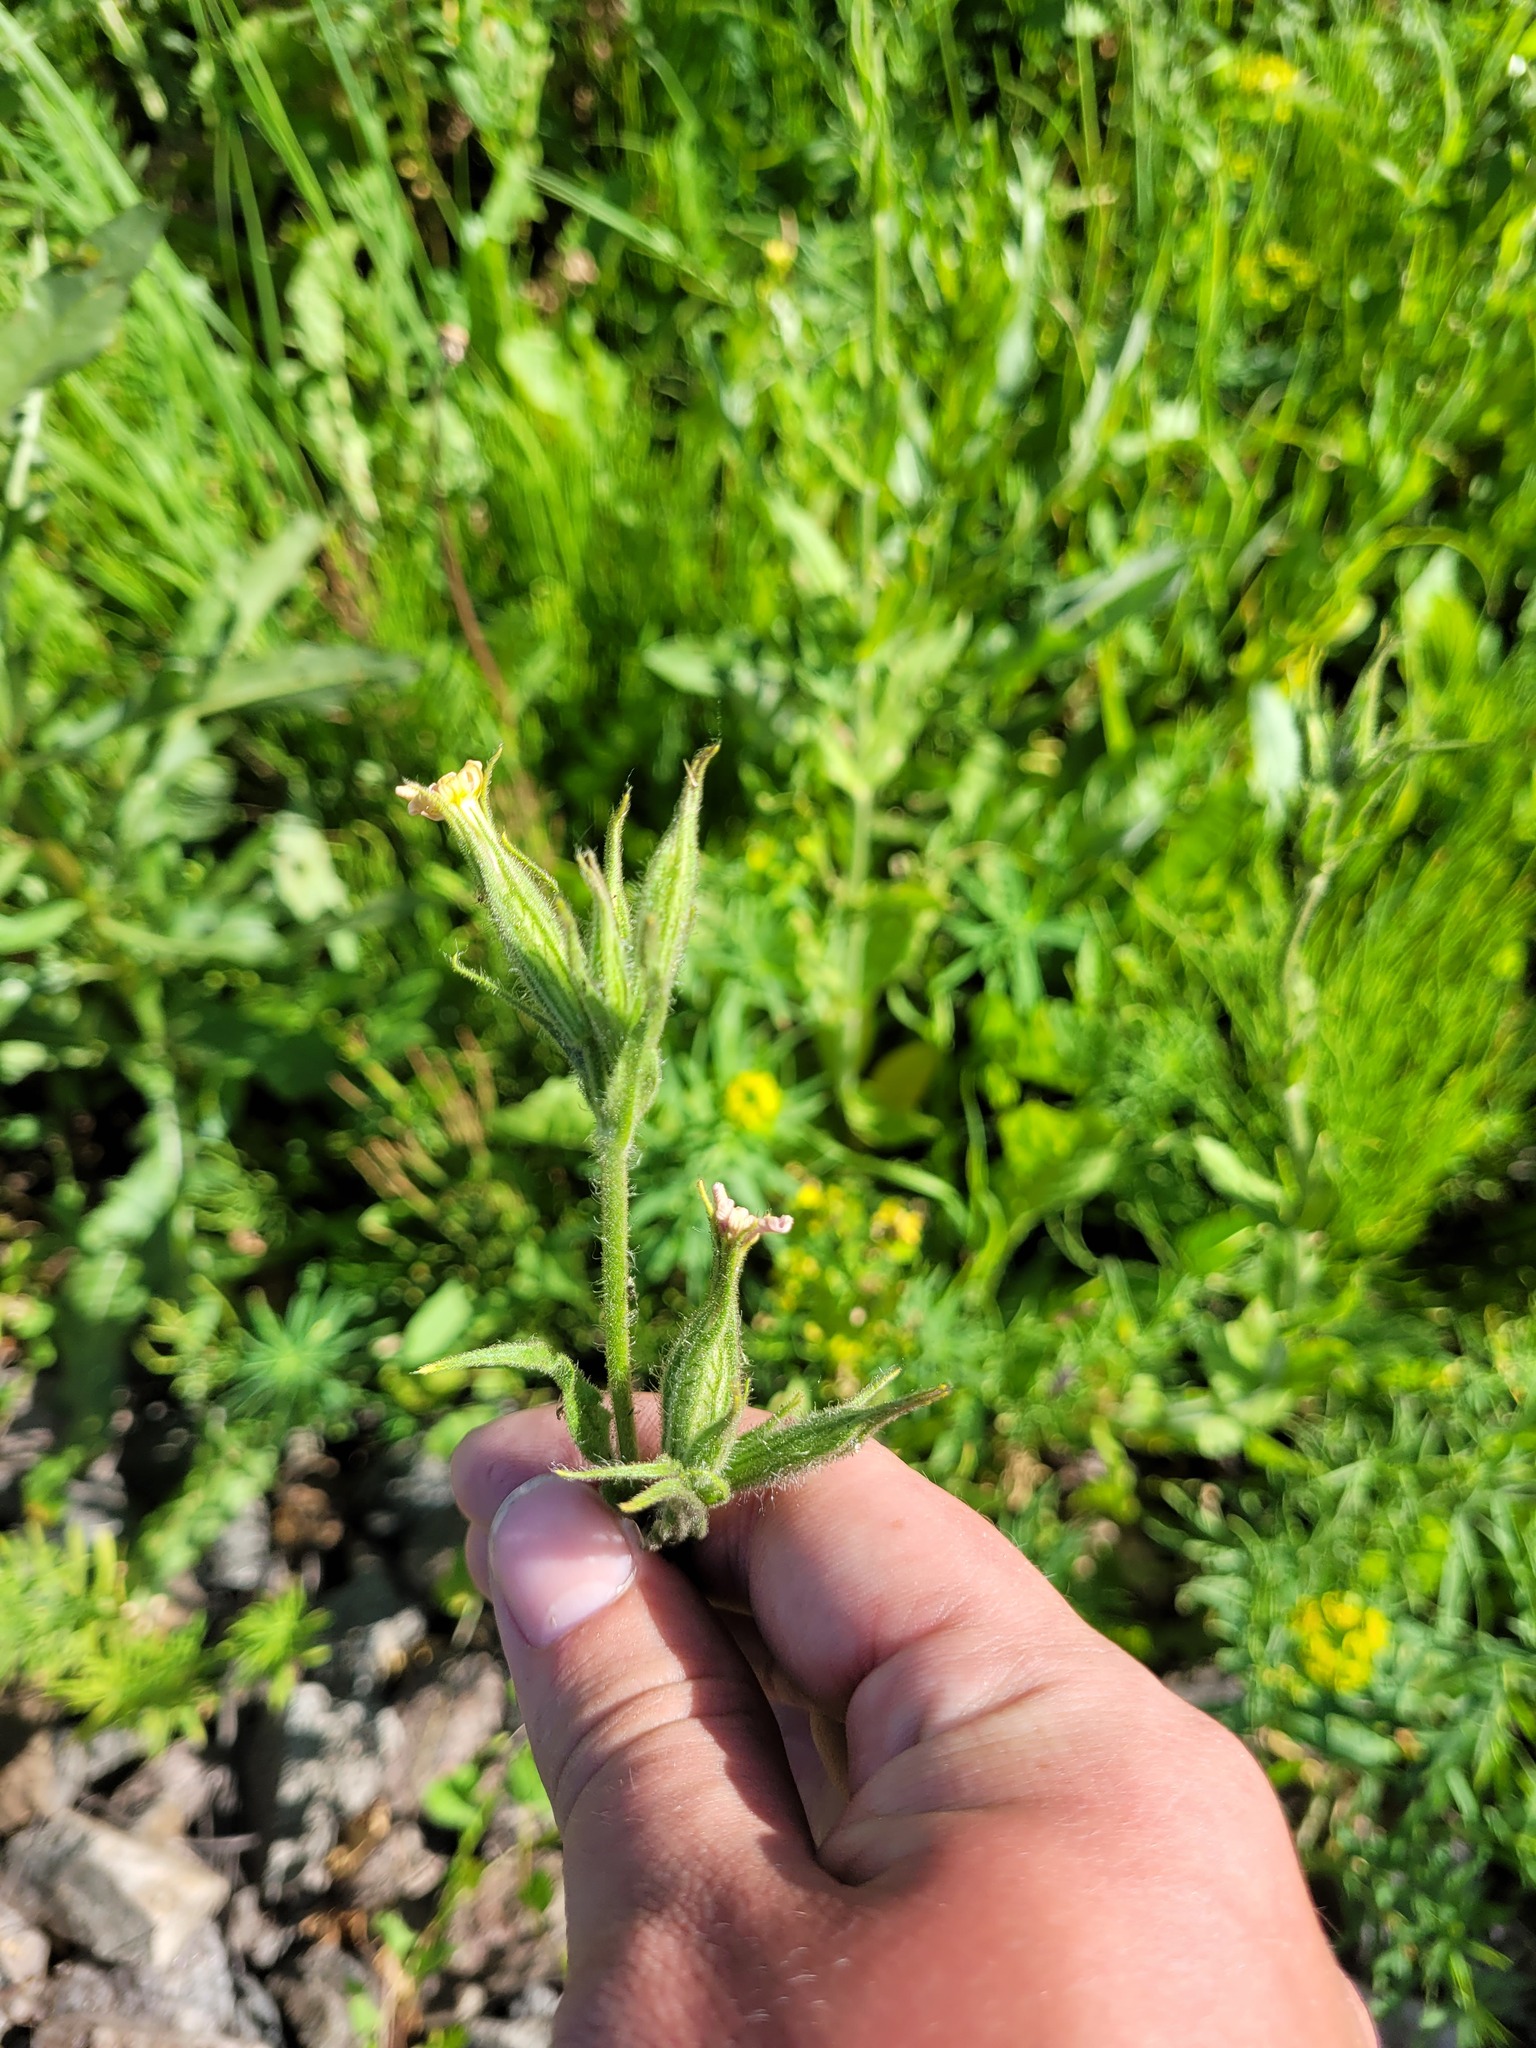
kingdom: Plantae
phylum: Tracheophyta
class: Magnoliopsida
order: Caryophyllales
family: Caryophyllaceae
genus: Silene
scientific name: Silene noctiflora
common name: Night-flowering catchfly
